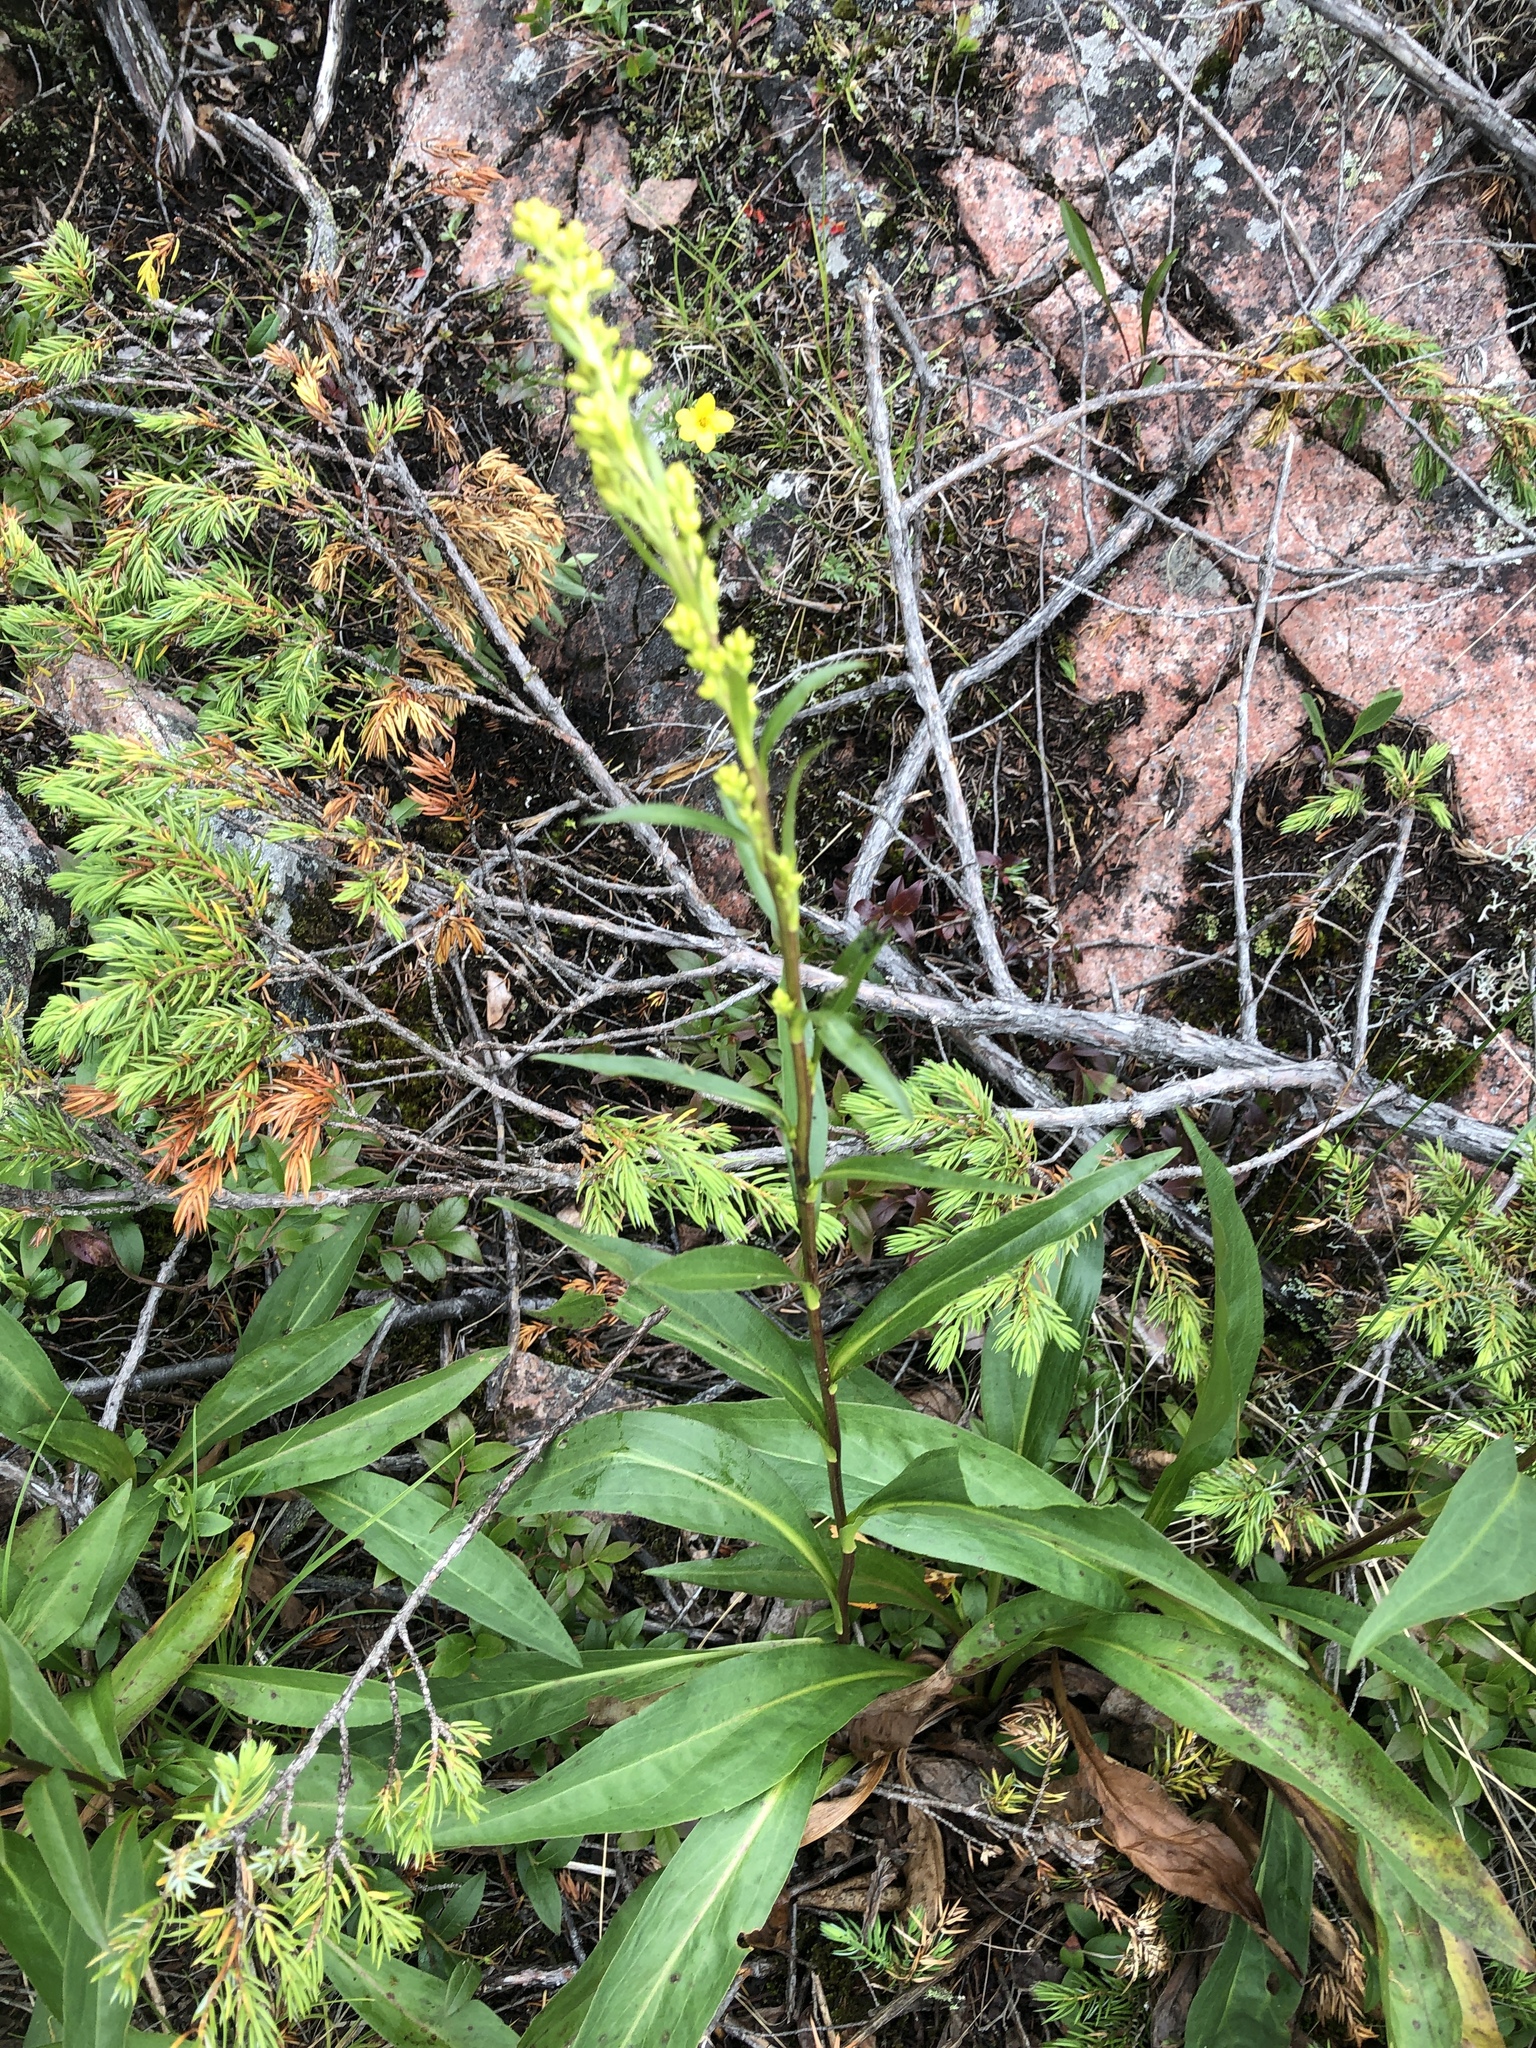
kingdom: Plantae
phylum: Tracheophyta
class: Magnoliopsida
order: Asterales
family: Asteraceae
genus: Solidago
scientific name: Solidago uliginosa
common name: Bog goldenrod
